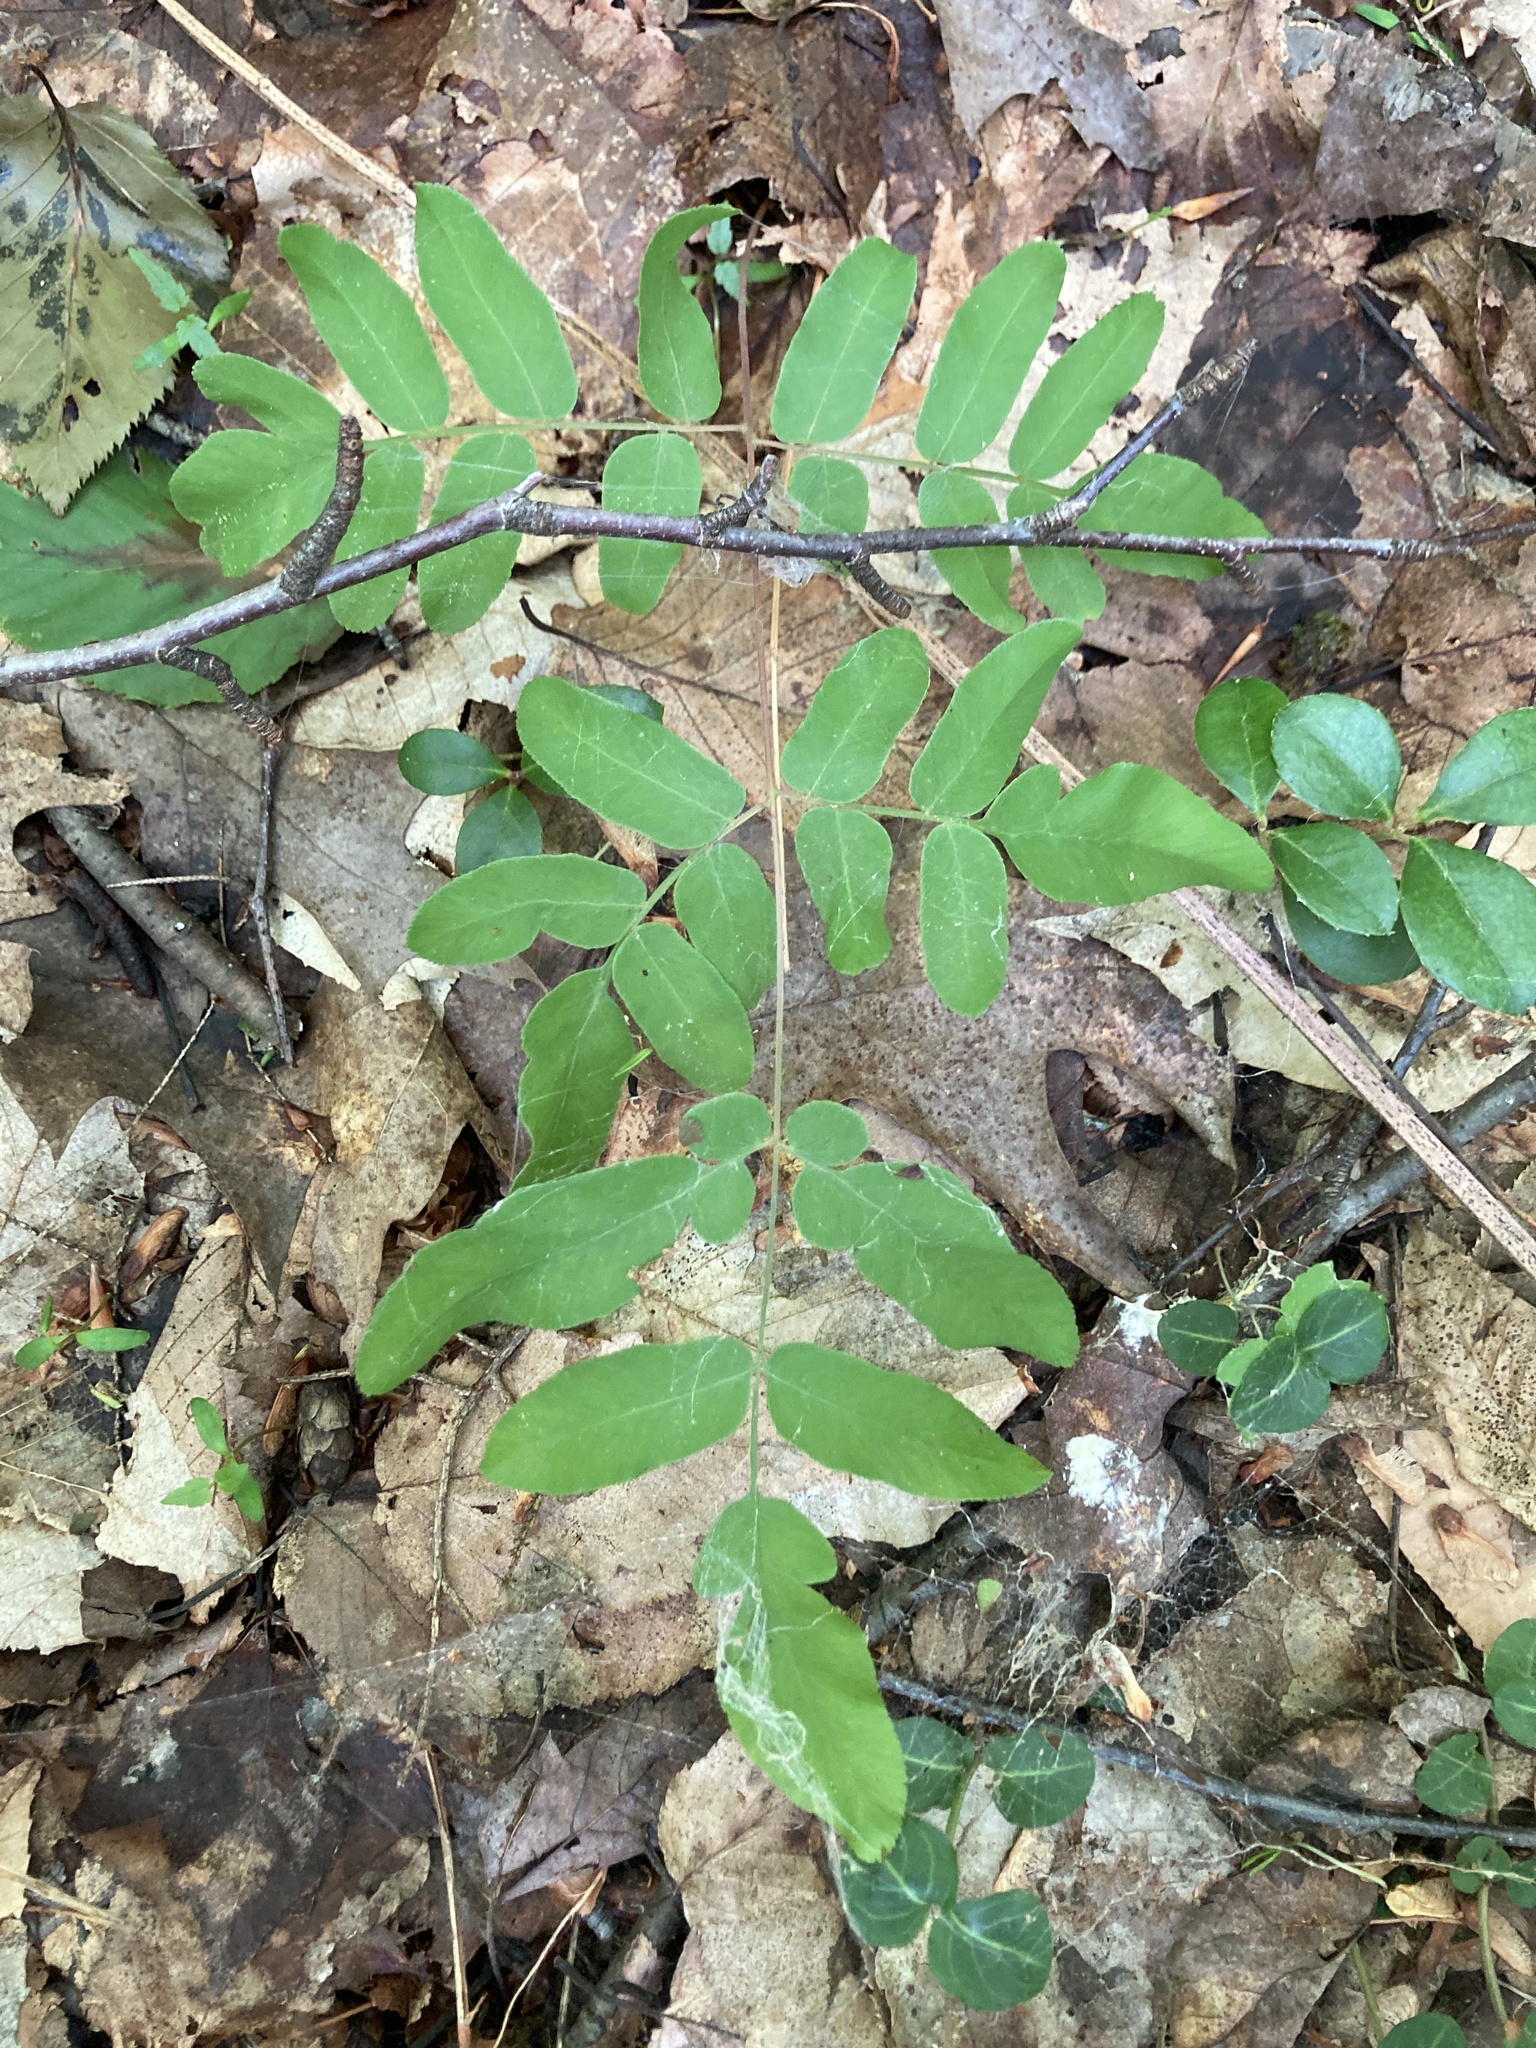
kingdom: Plantae
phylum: Tracheophyta
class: Polypodiopsida
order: Osmundales
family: Osmundaceae
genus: Osmunda
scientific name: Osmunda spectabilis
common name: American royal fern
